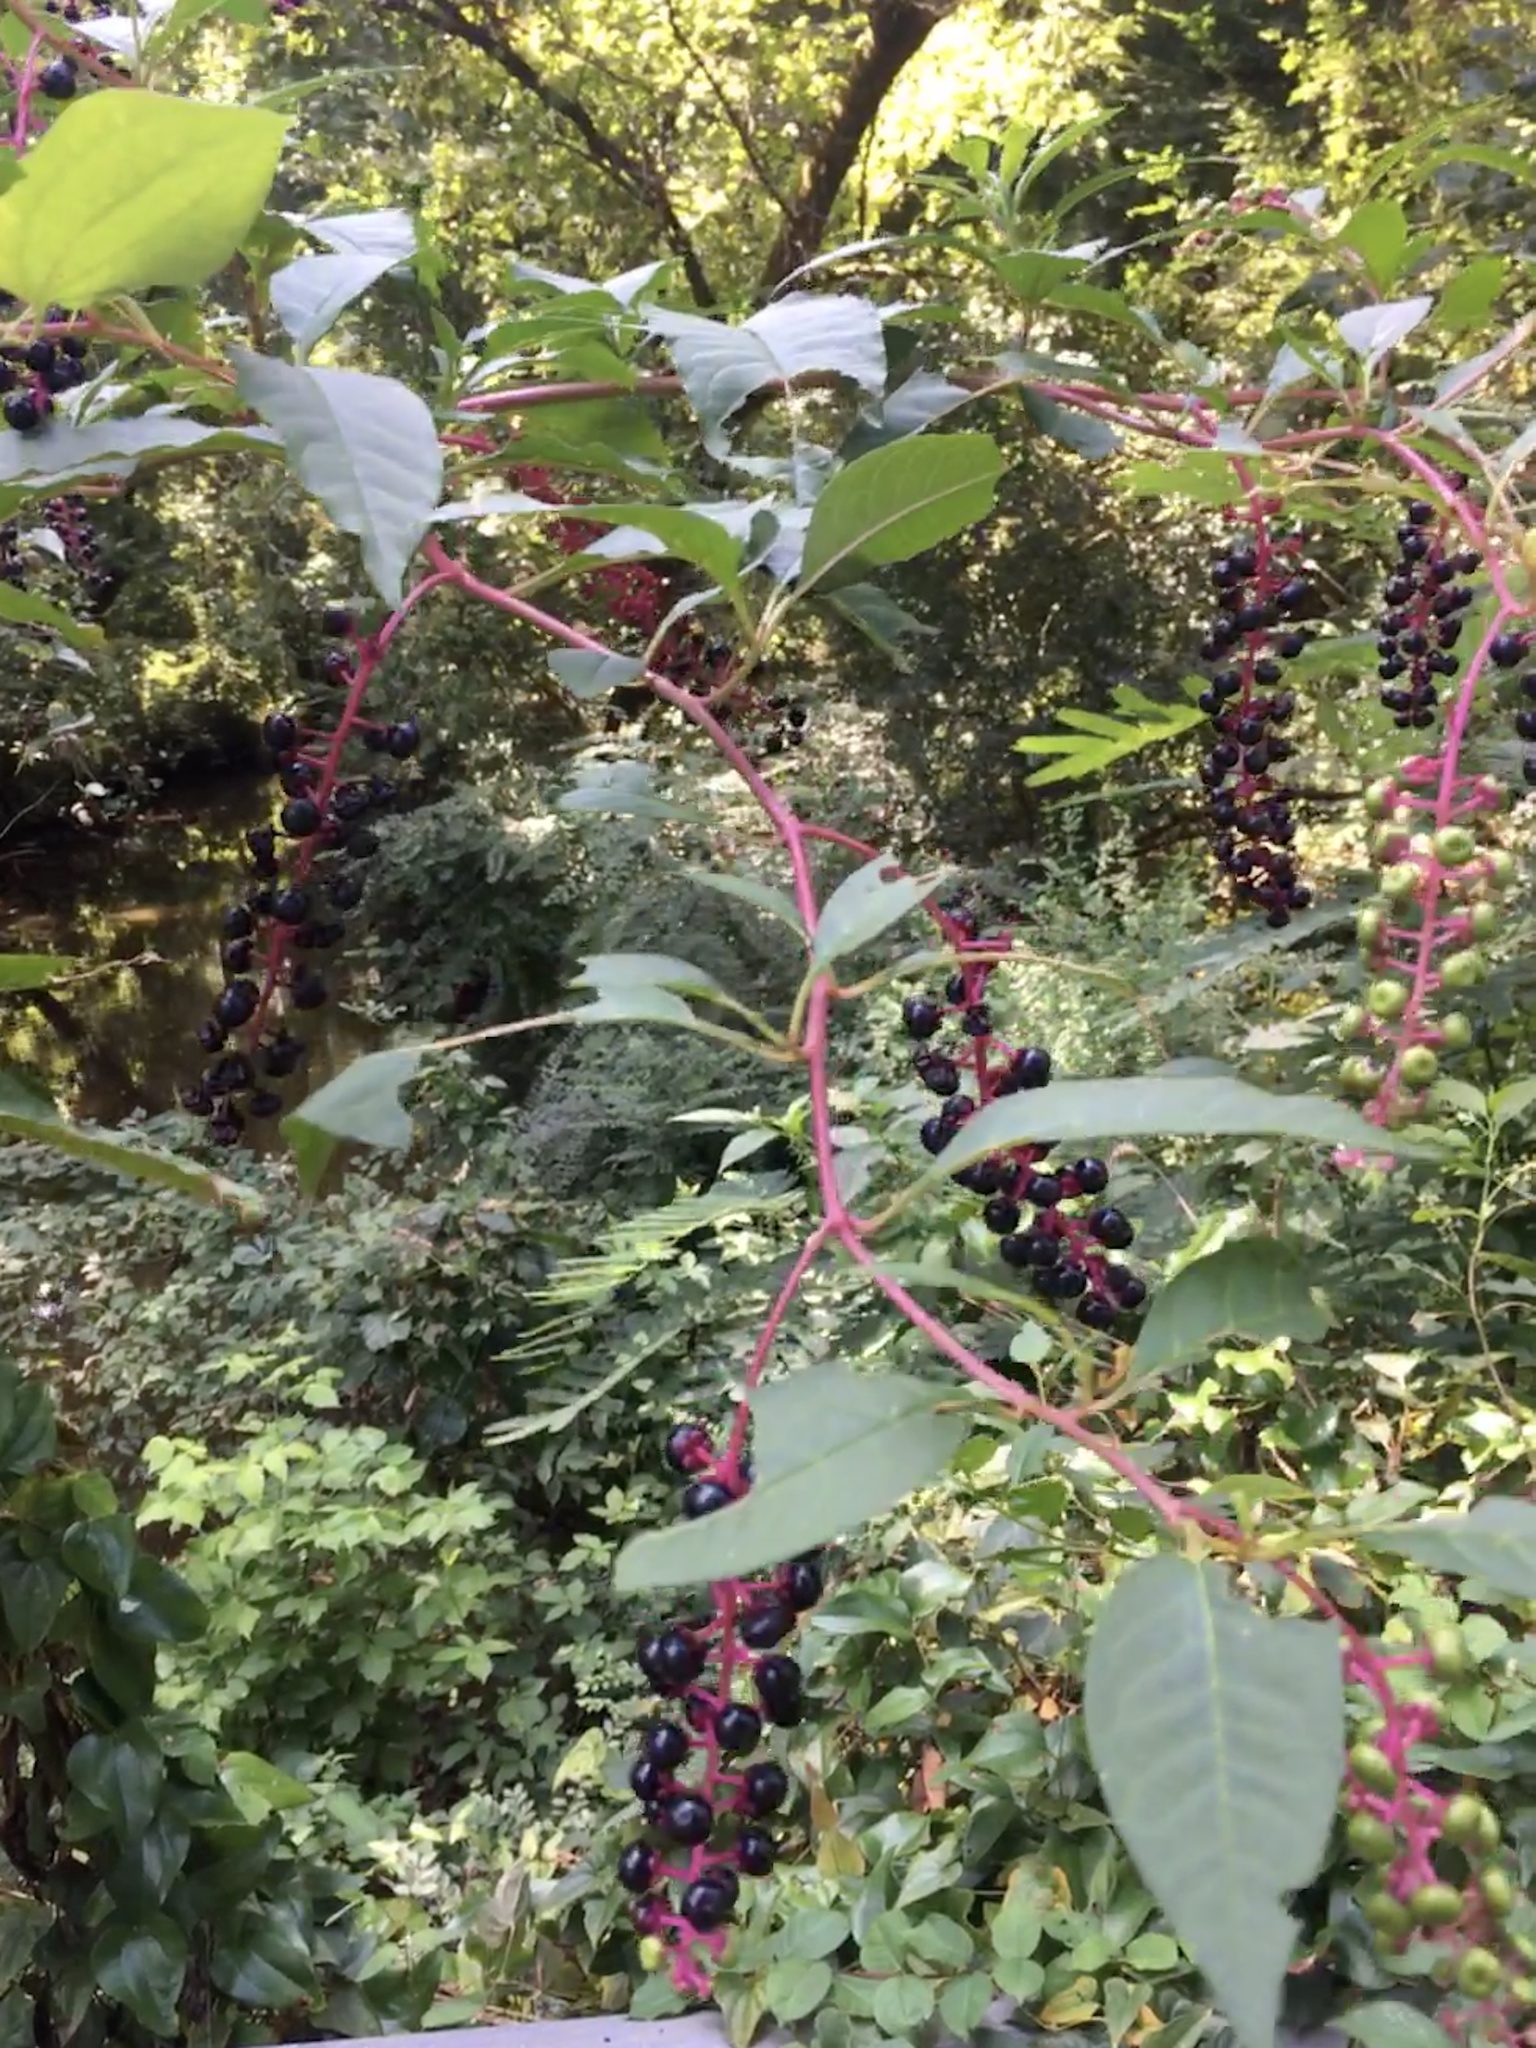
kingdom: Plantae
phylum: Tracheophyta
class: Magnoliopsida
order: Caryophyllales
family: Phytolaccaceae
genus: Phytolacca
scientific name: Phytolacca americana
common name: American pokeweed
